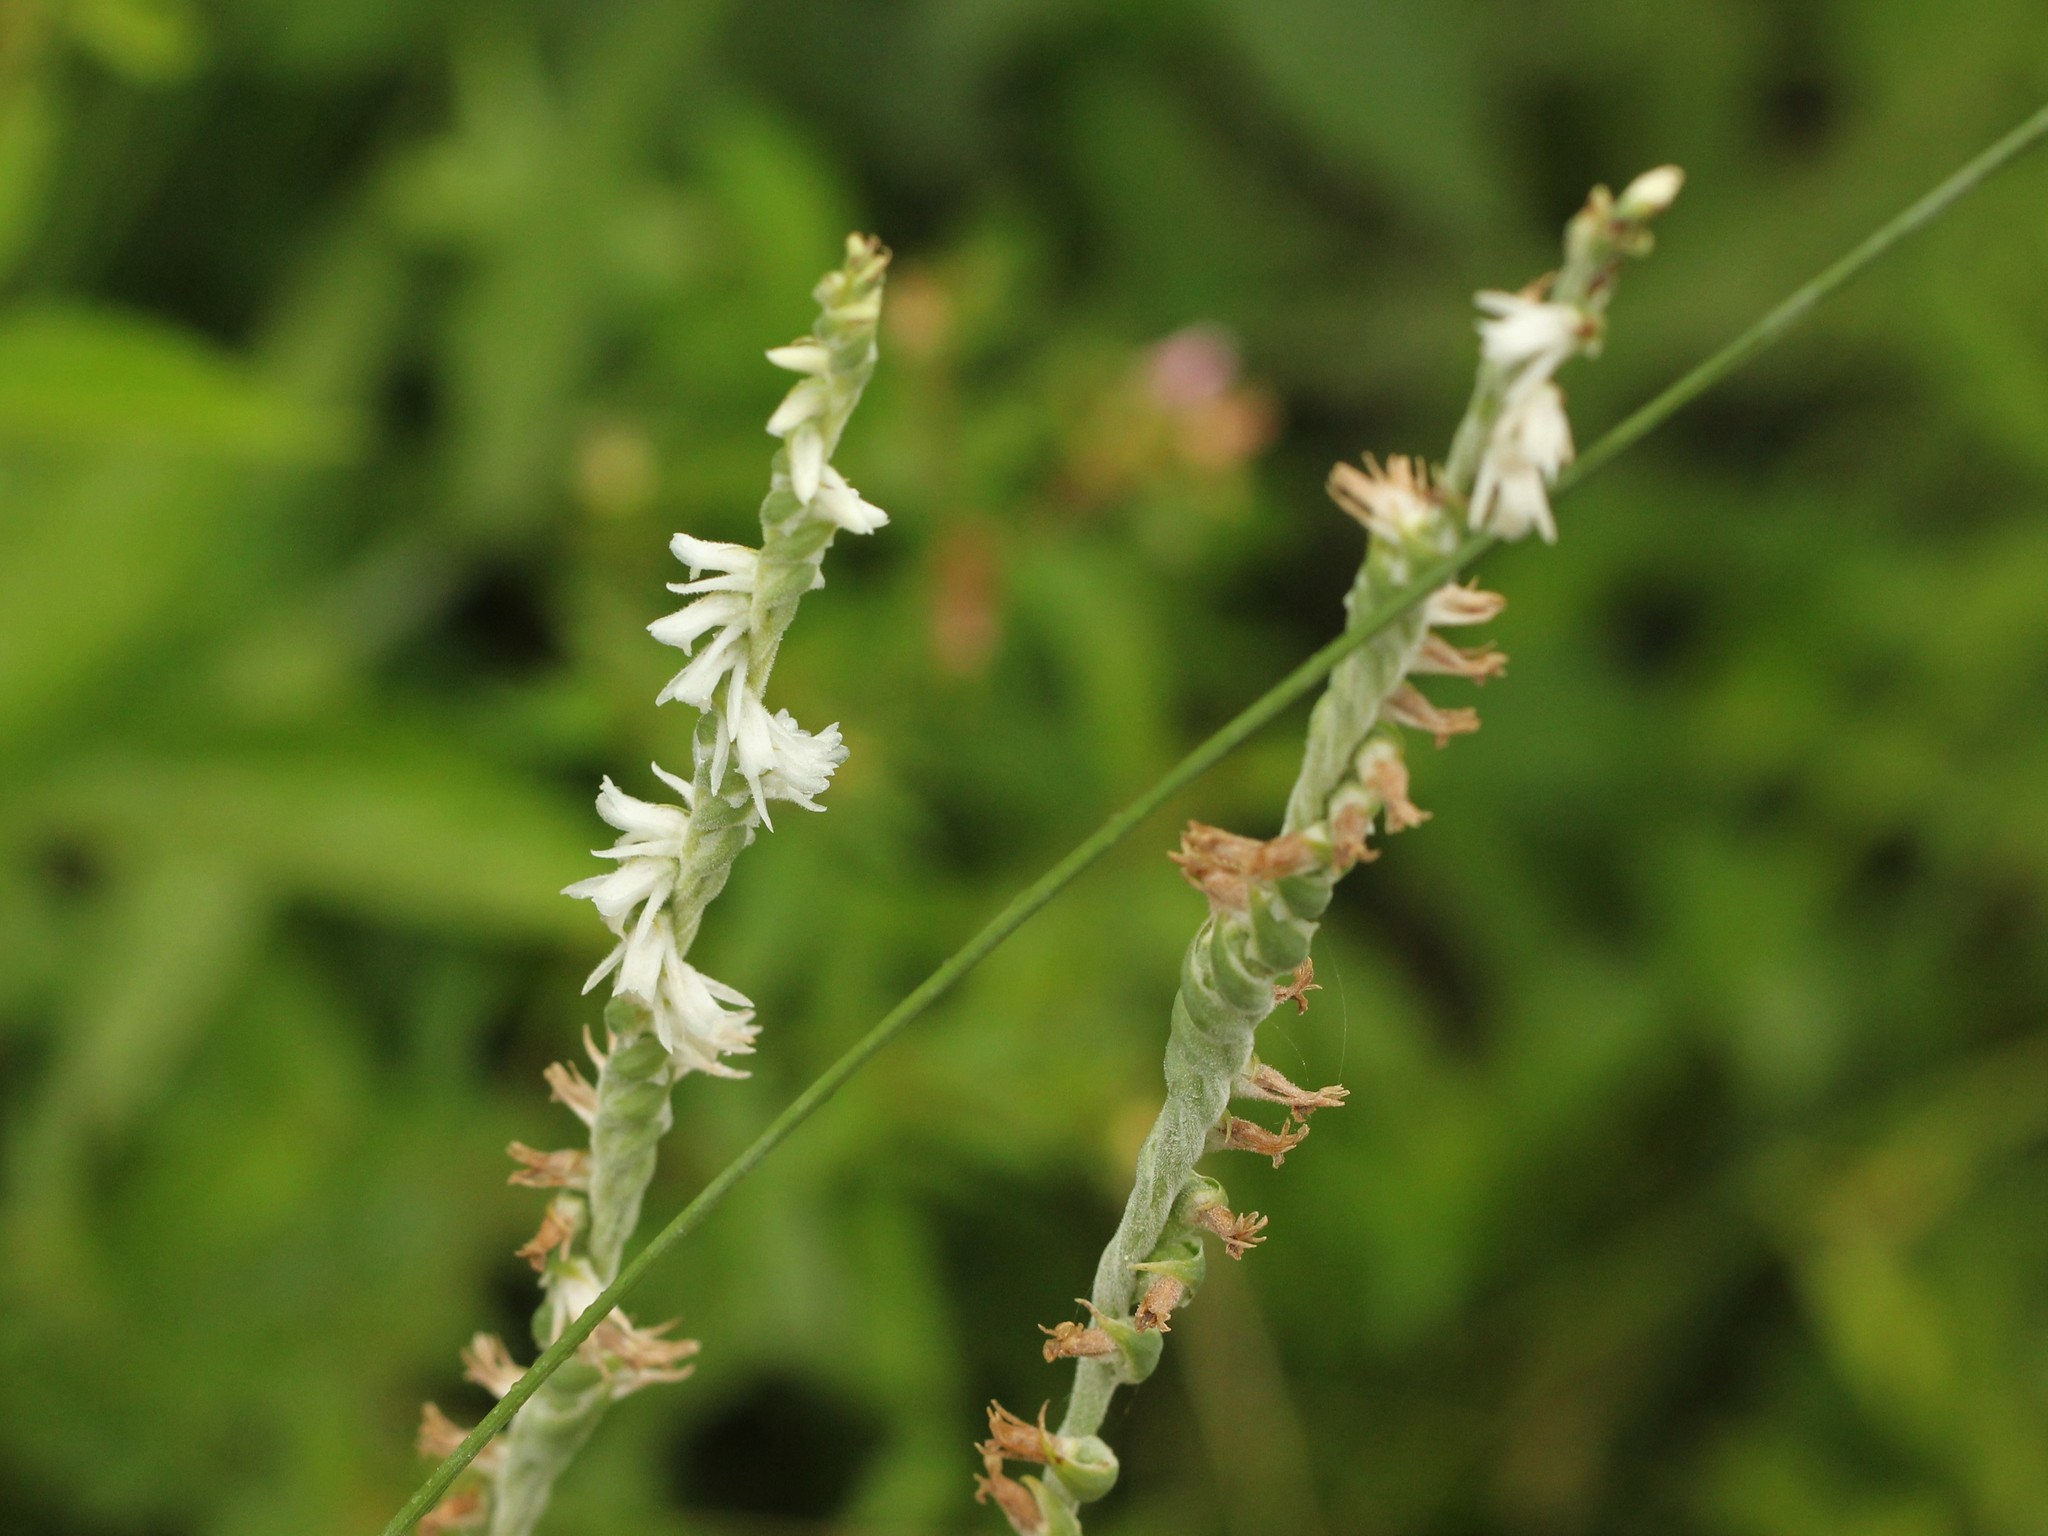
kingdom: Plantae
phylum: Tracheophyta
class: Liliopsida
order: Asparagales
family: Orchidaceae
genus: Spiranthes
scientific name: Spiranthes vernalis
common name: Spring ladies'-tresses
